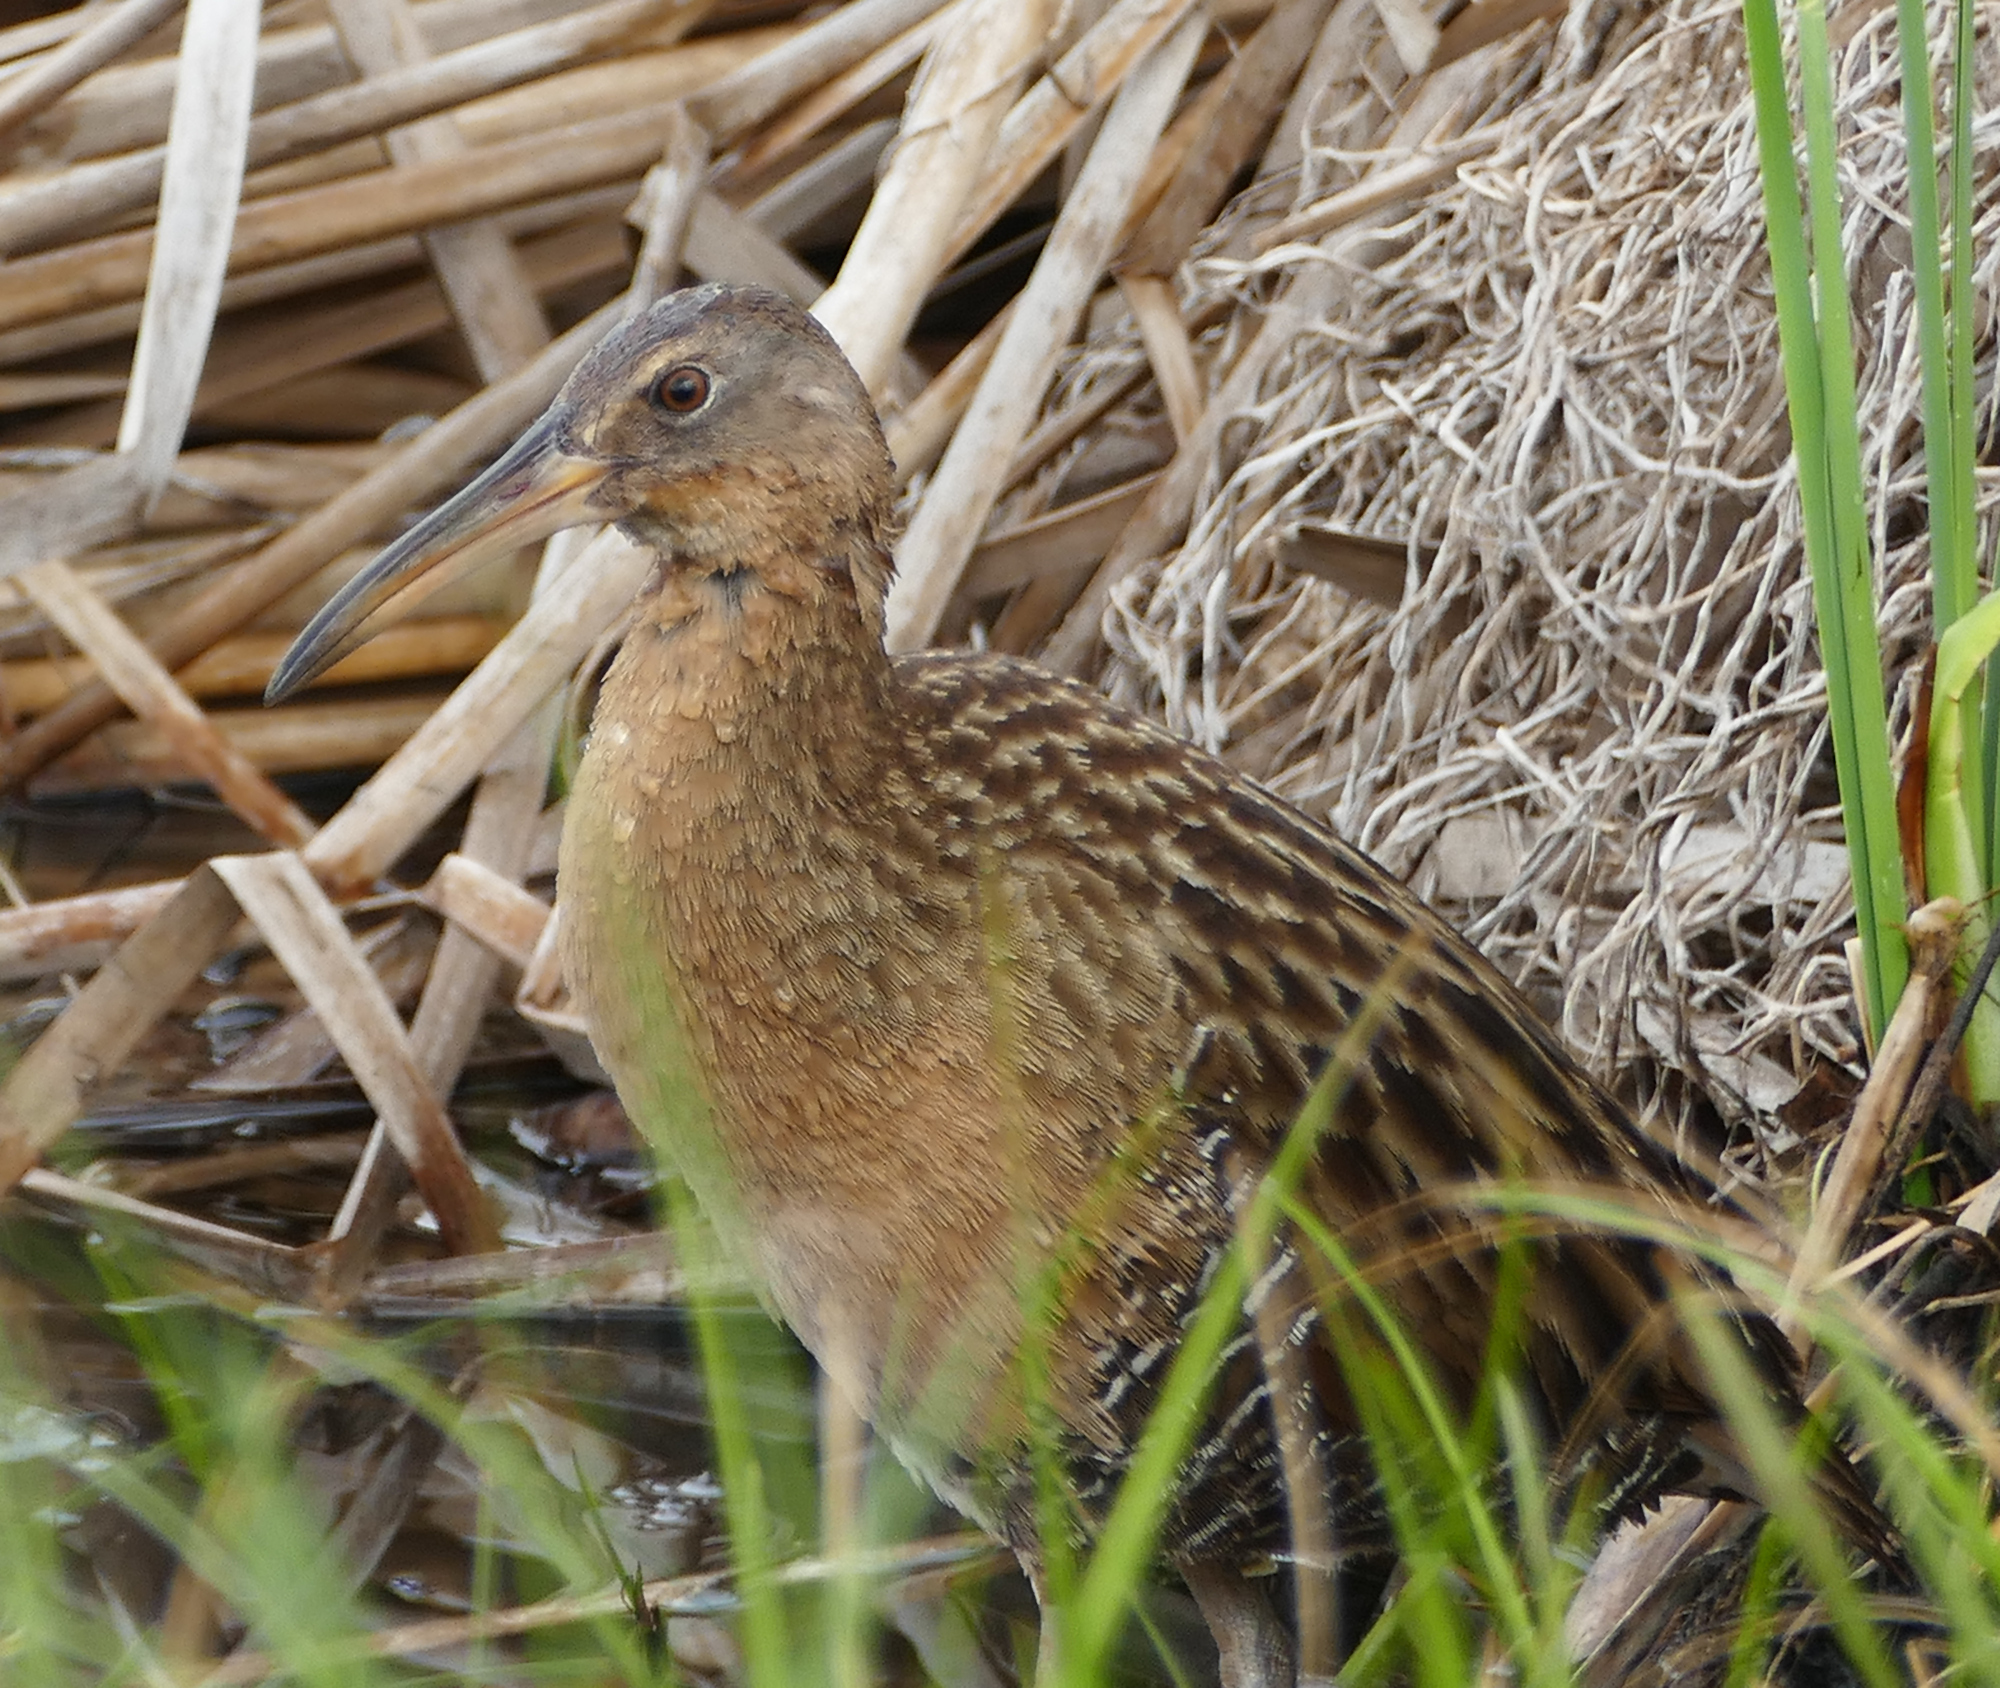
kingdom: Animalia
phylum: Chordata
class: Aves
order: Gruiformes
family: Rallidae
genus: Rallus
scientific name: Rallus elegans
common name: King rail
